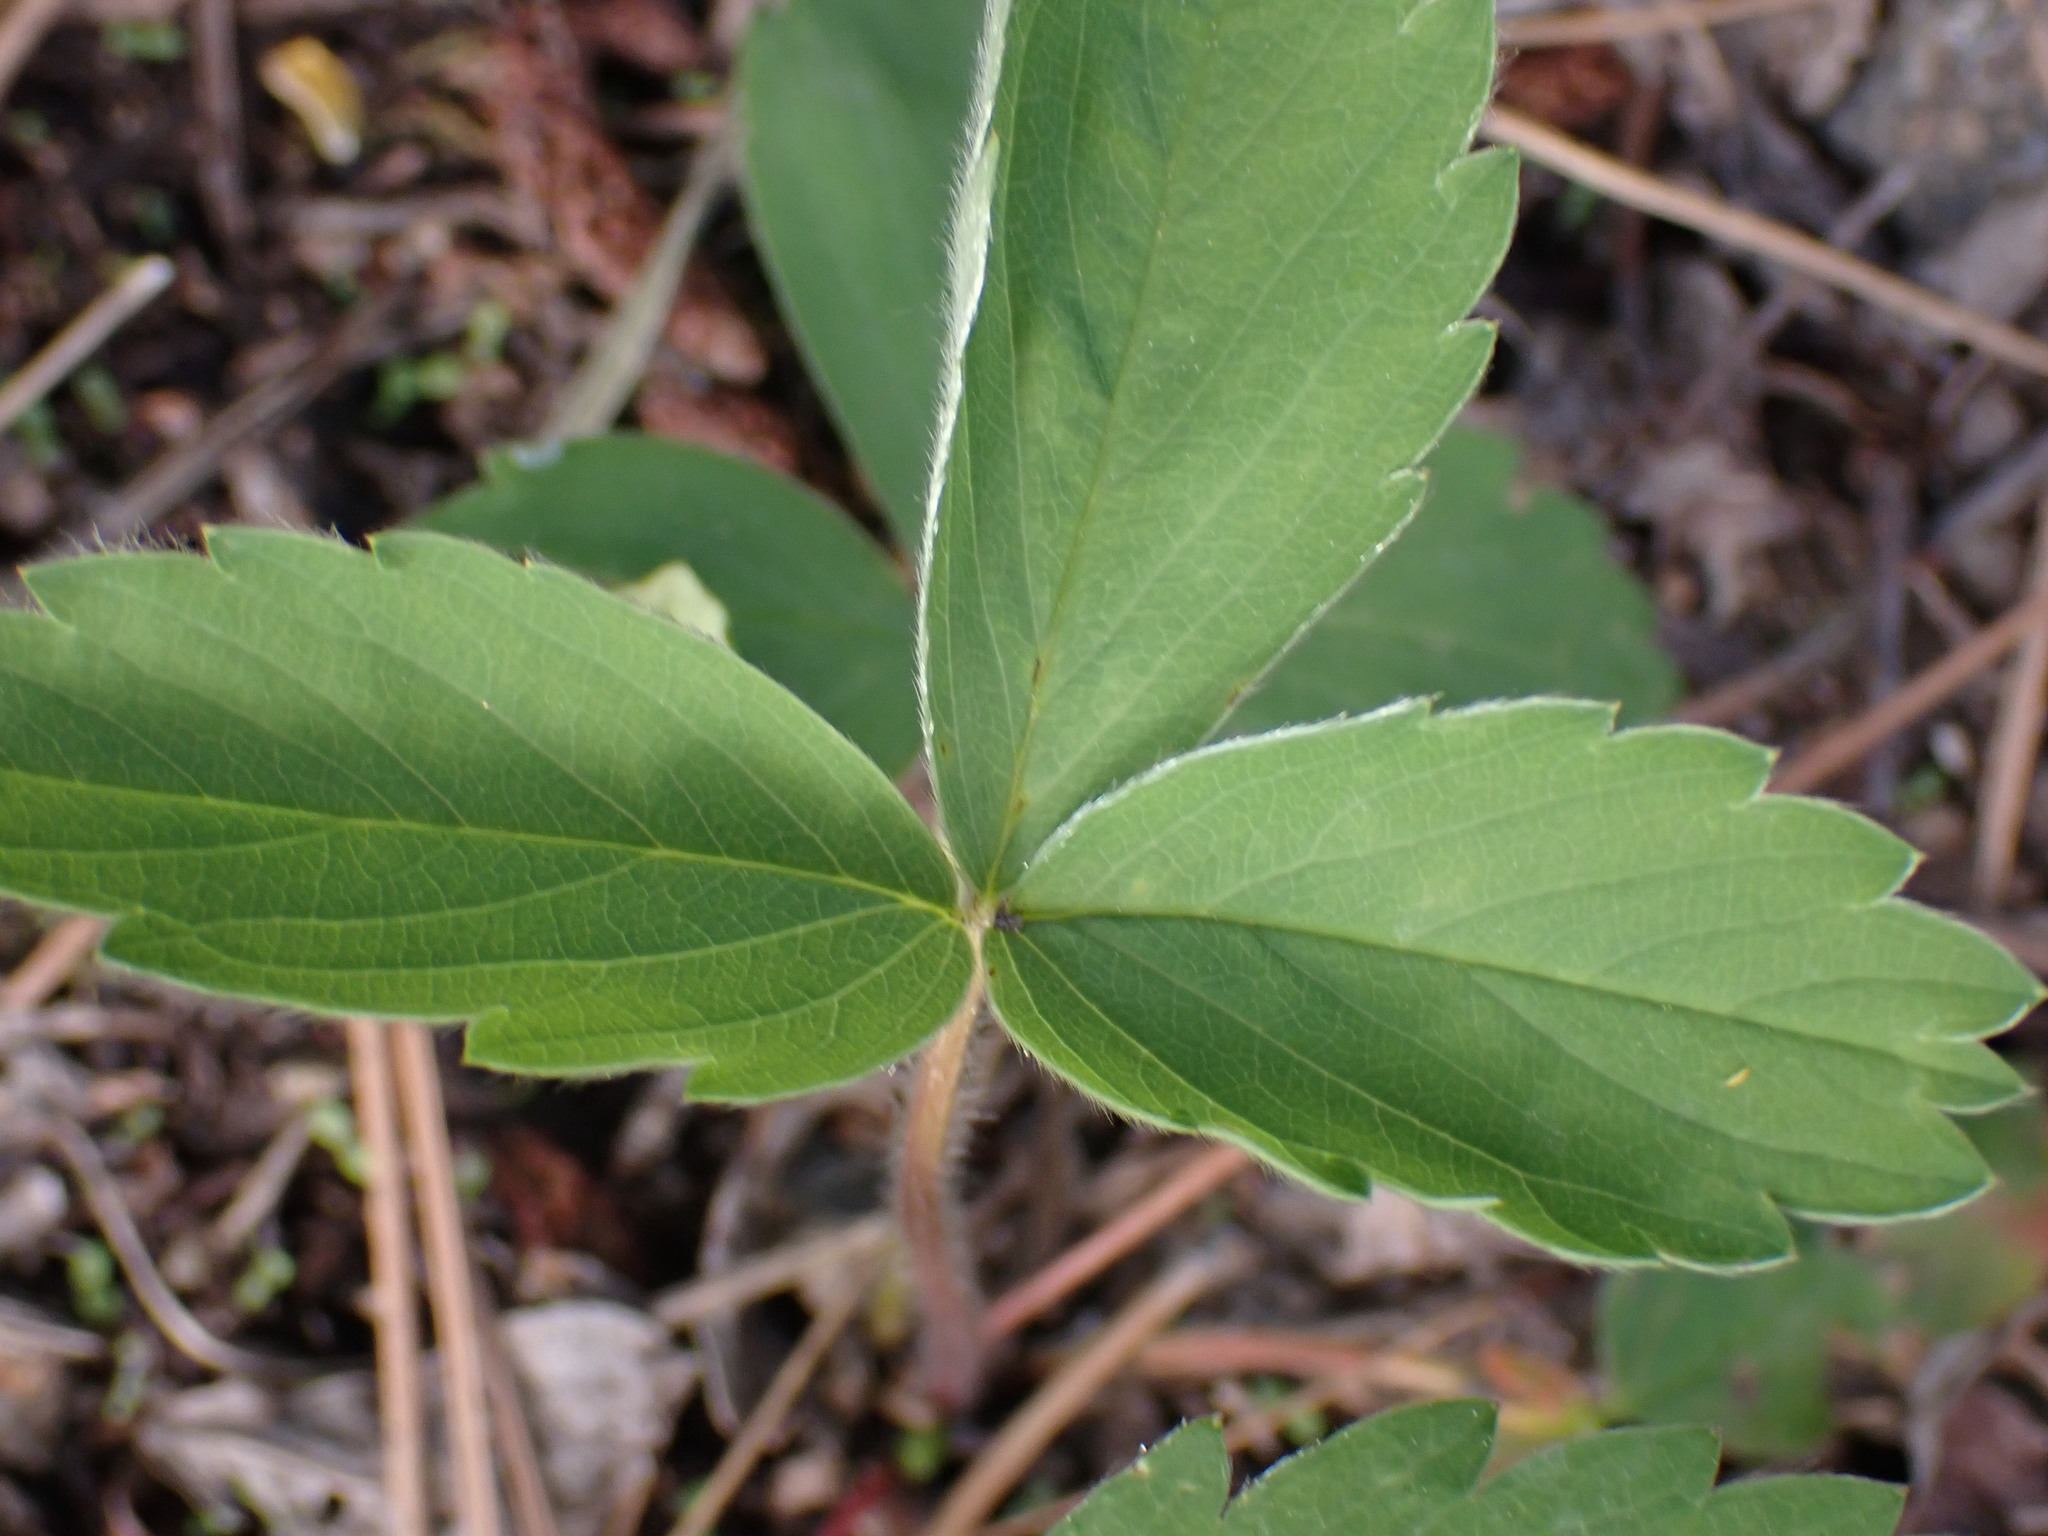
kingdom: Plantae
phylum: Tracheophyta
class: Magnoliopsida
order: Rosales
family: Rosaceae
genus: Fragaria
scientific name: Fragaria virginiana
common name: Thickleaved wild strawberry
